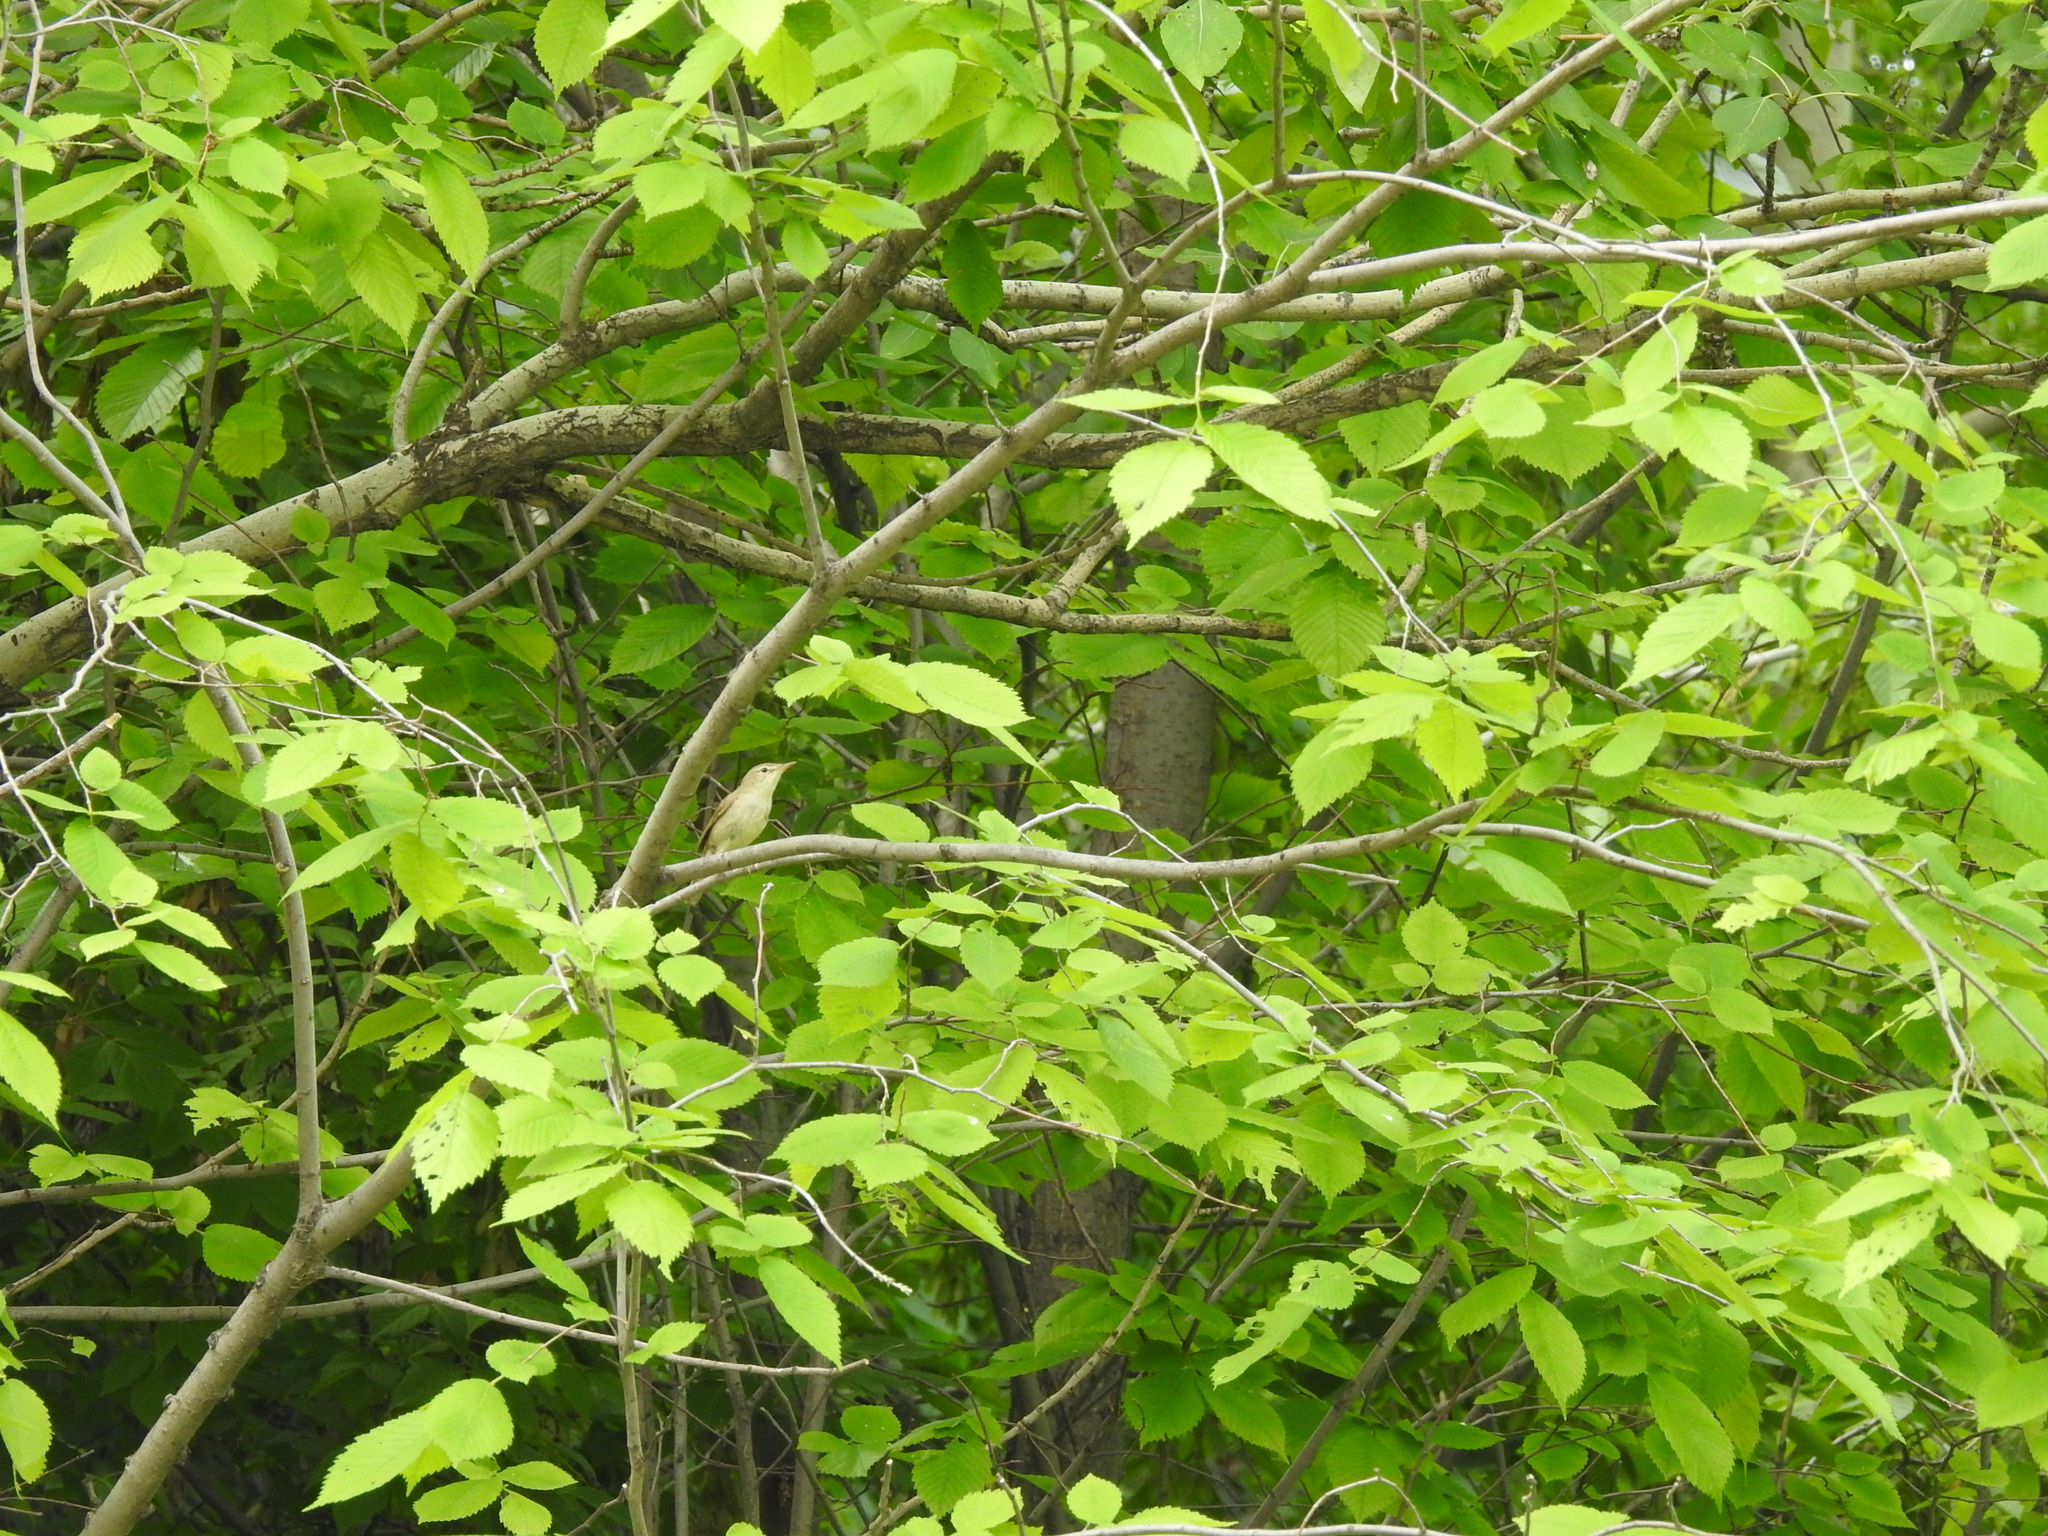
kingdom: Animalia
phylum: Chordata
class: Aves
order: Passeriformes
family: Acrocephalidae
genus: Acrocephalus
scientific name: Acrocephalus dumetorum
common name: Blyth's reed warbler
